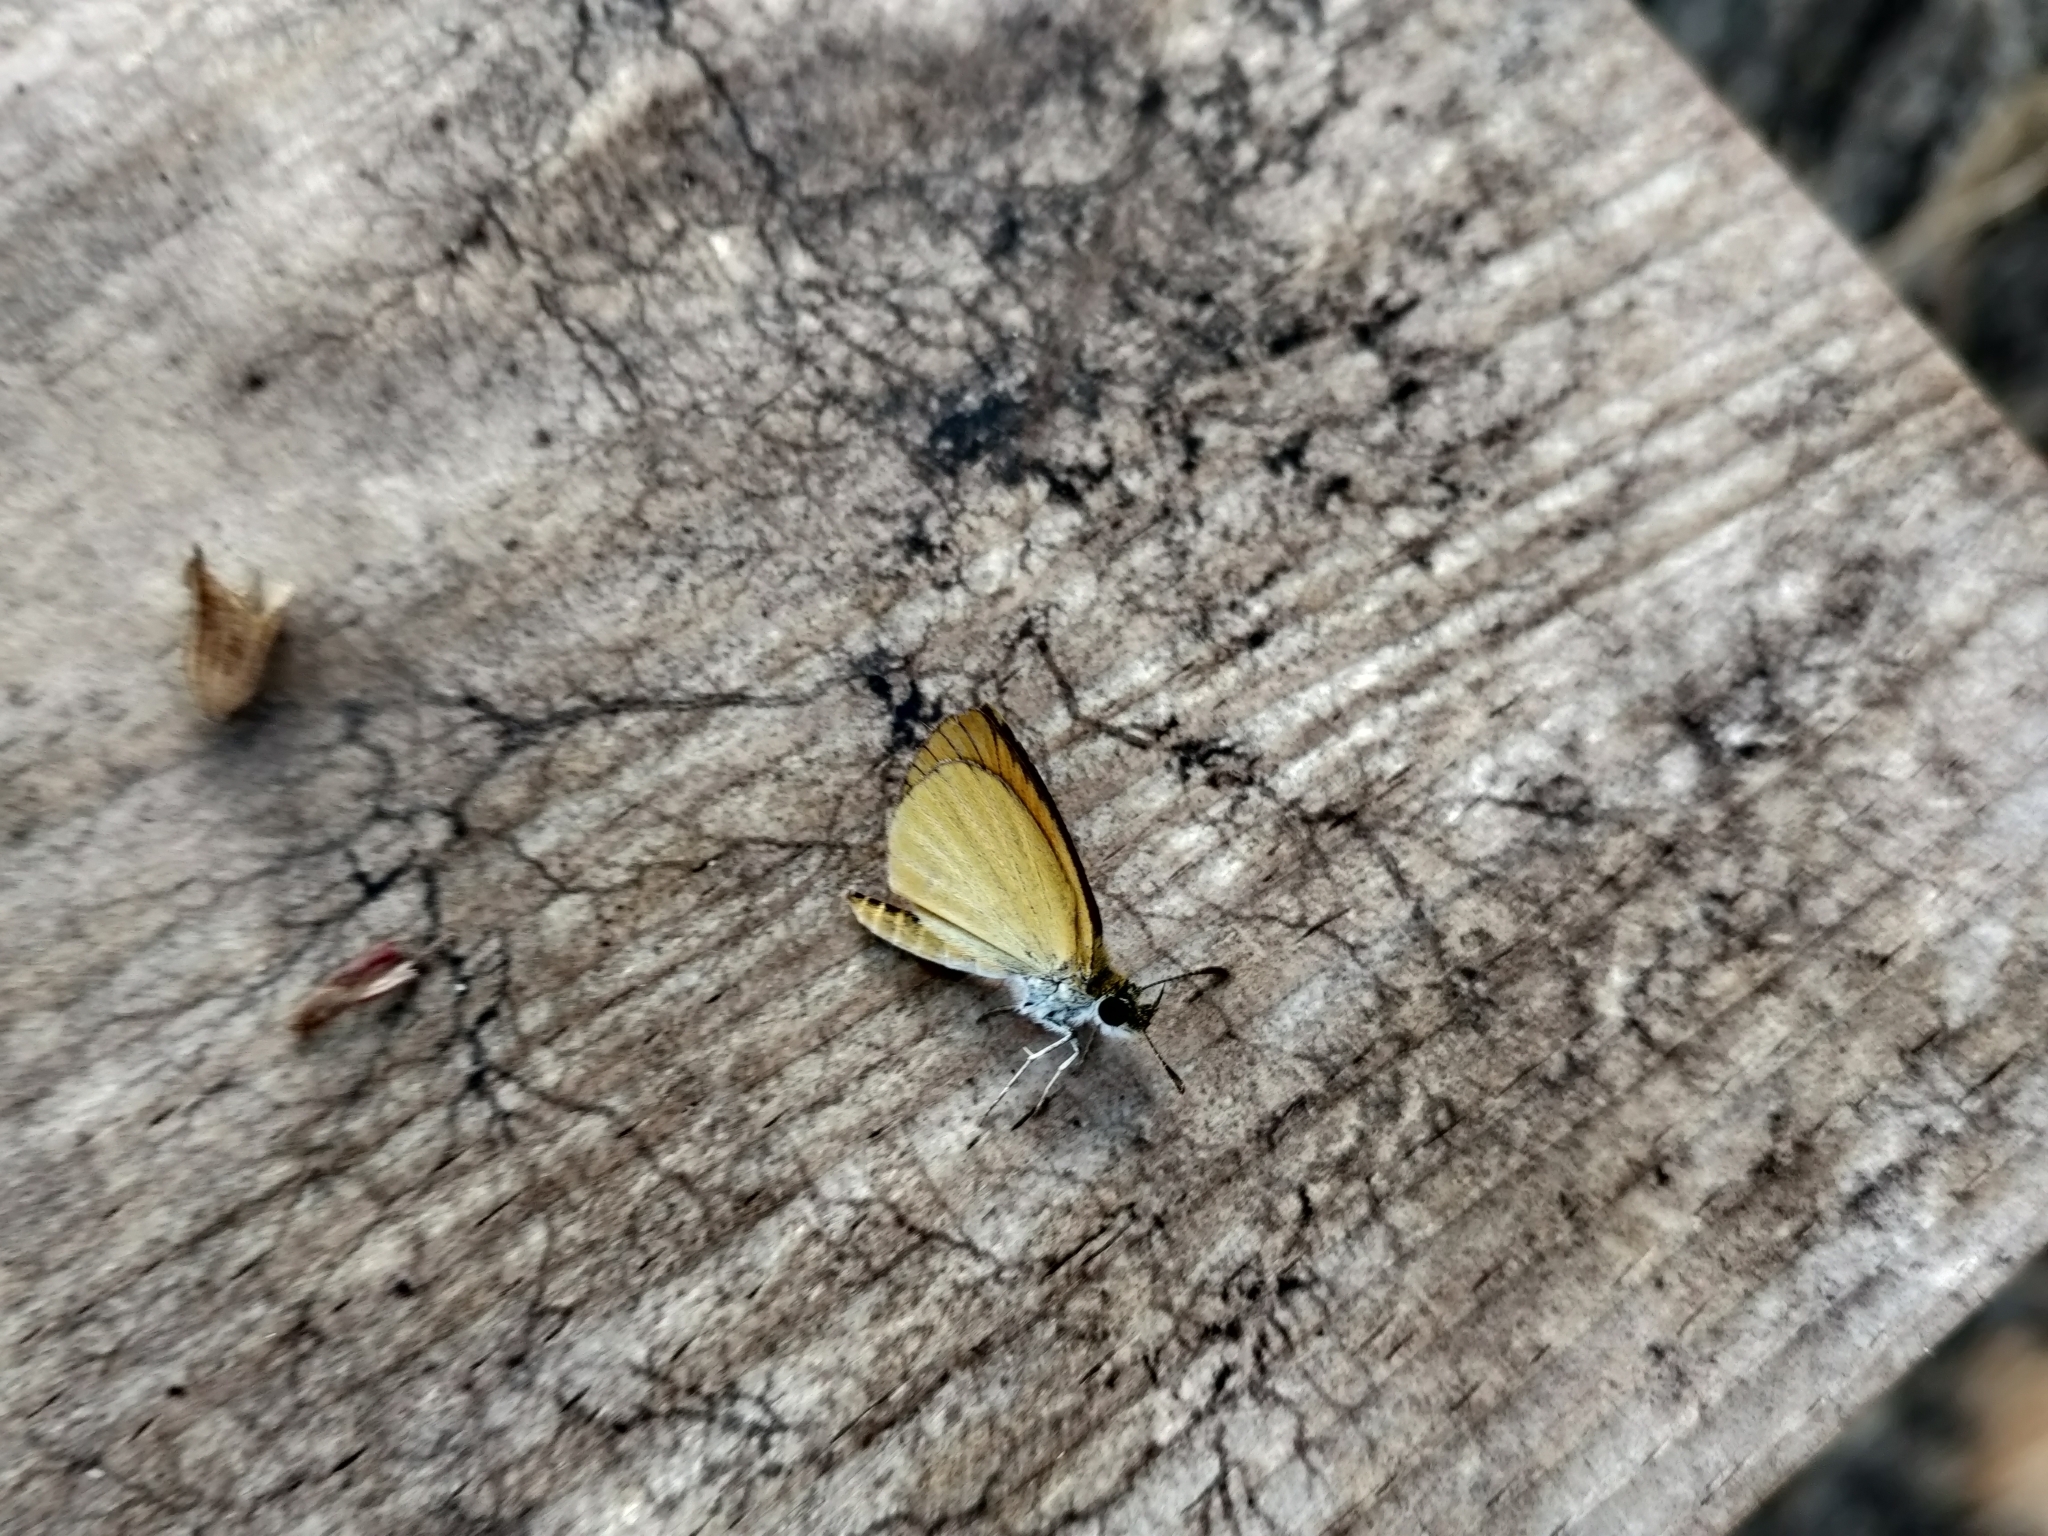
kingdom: Animalia
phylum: Arthropoda
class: Insecta
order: Lepidoptera
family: Hesperiidae
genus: Ancyloxypha
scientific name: Ancyloxypha numitor
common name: Least skipper
